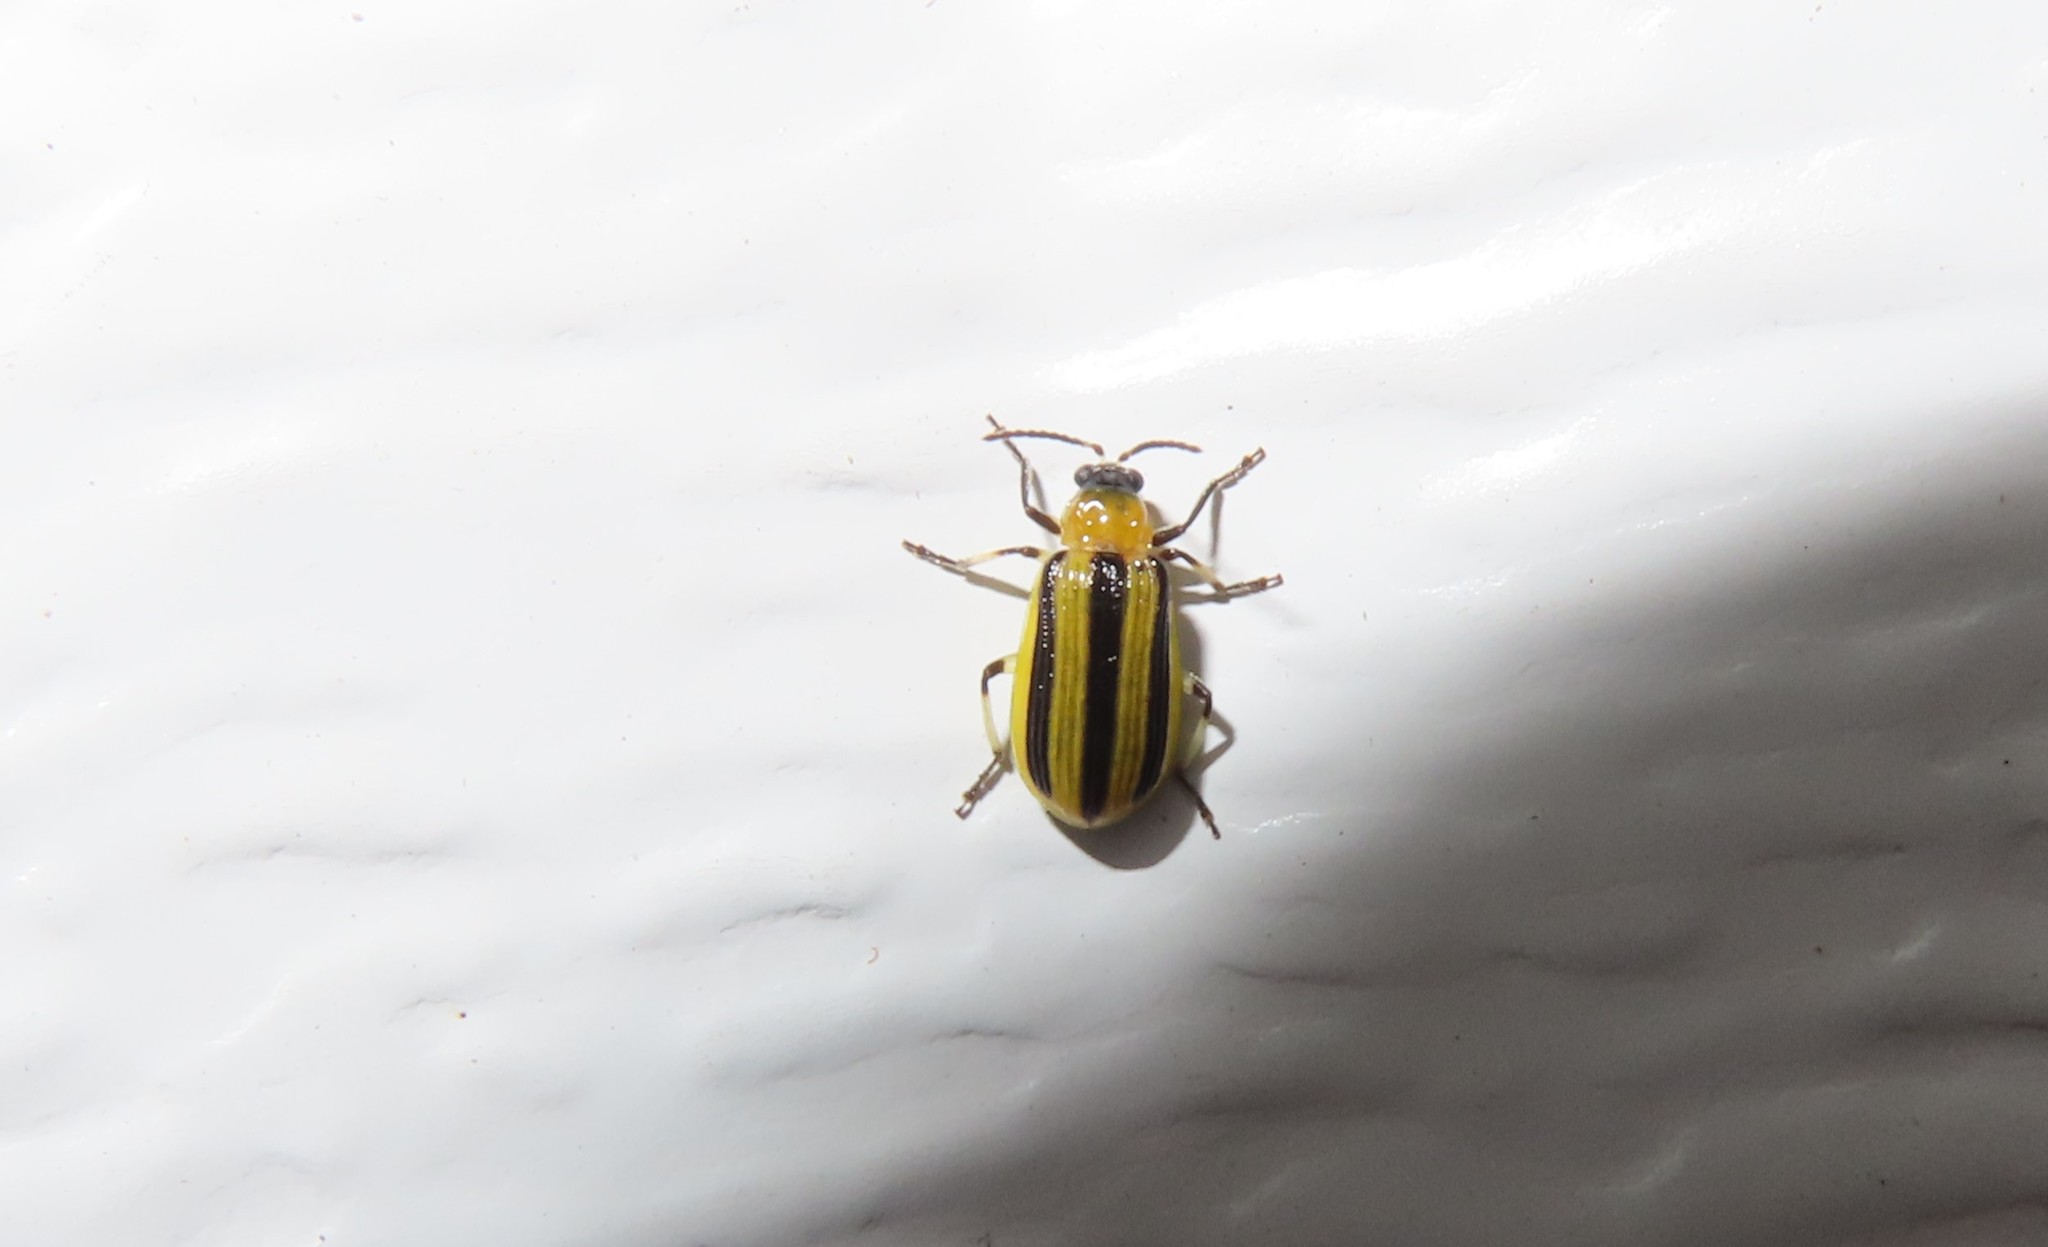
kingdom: Animalia
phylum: Arthropoda
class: Insecta
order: Coleoptera
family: Chrysomelidae
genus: Acalymma
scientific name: Acalymma vittatum
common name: Striped cucumber beetle
